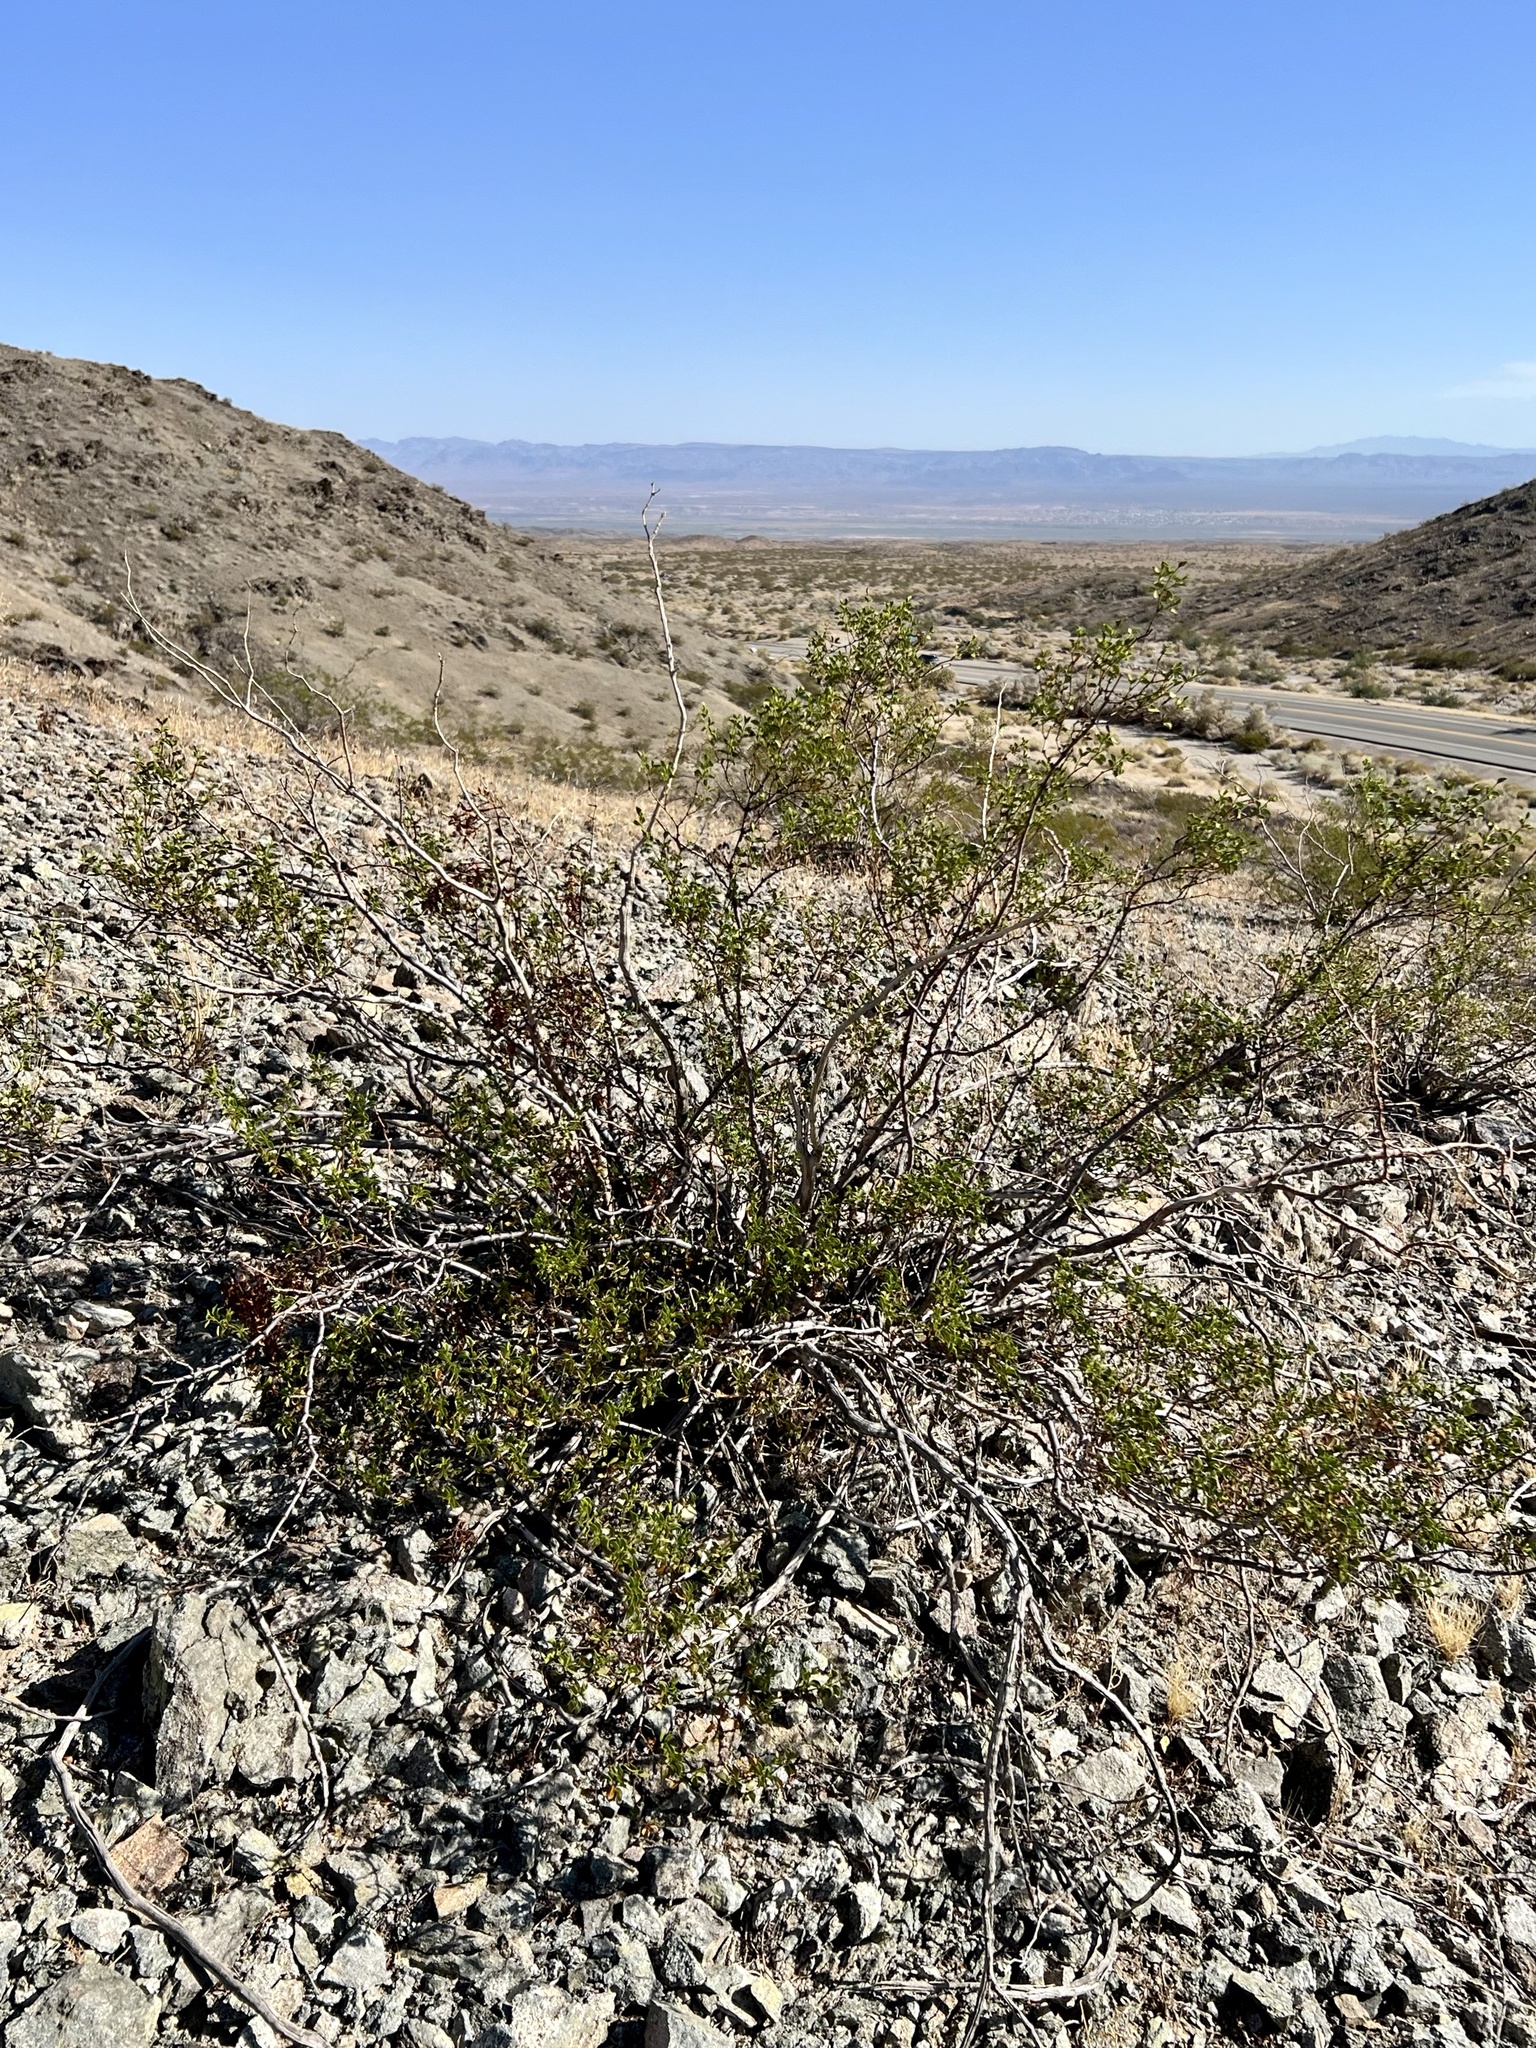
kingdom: Plantae
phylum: Tracheophyta
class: Magnoliopsida
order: Zygophyllales
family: Zygophyllaceae
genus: Larrea
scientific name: Larrea tridentata
